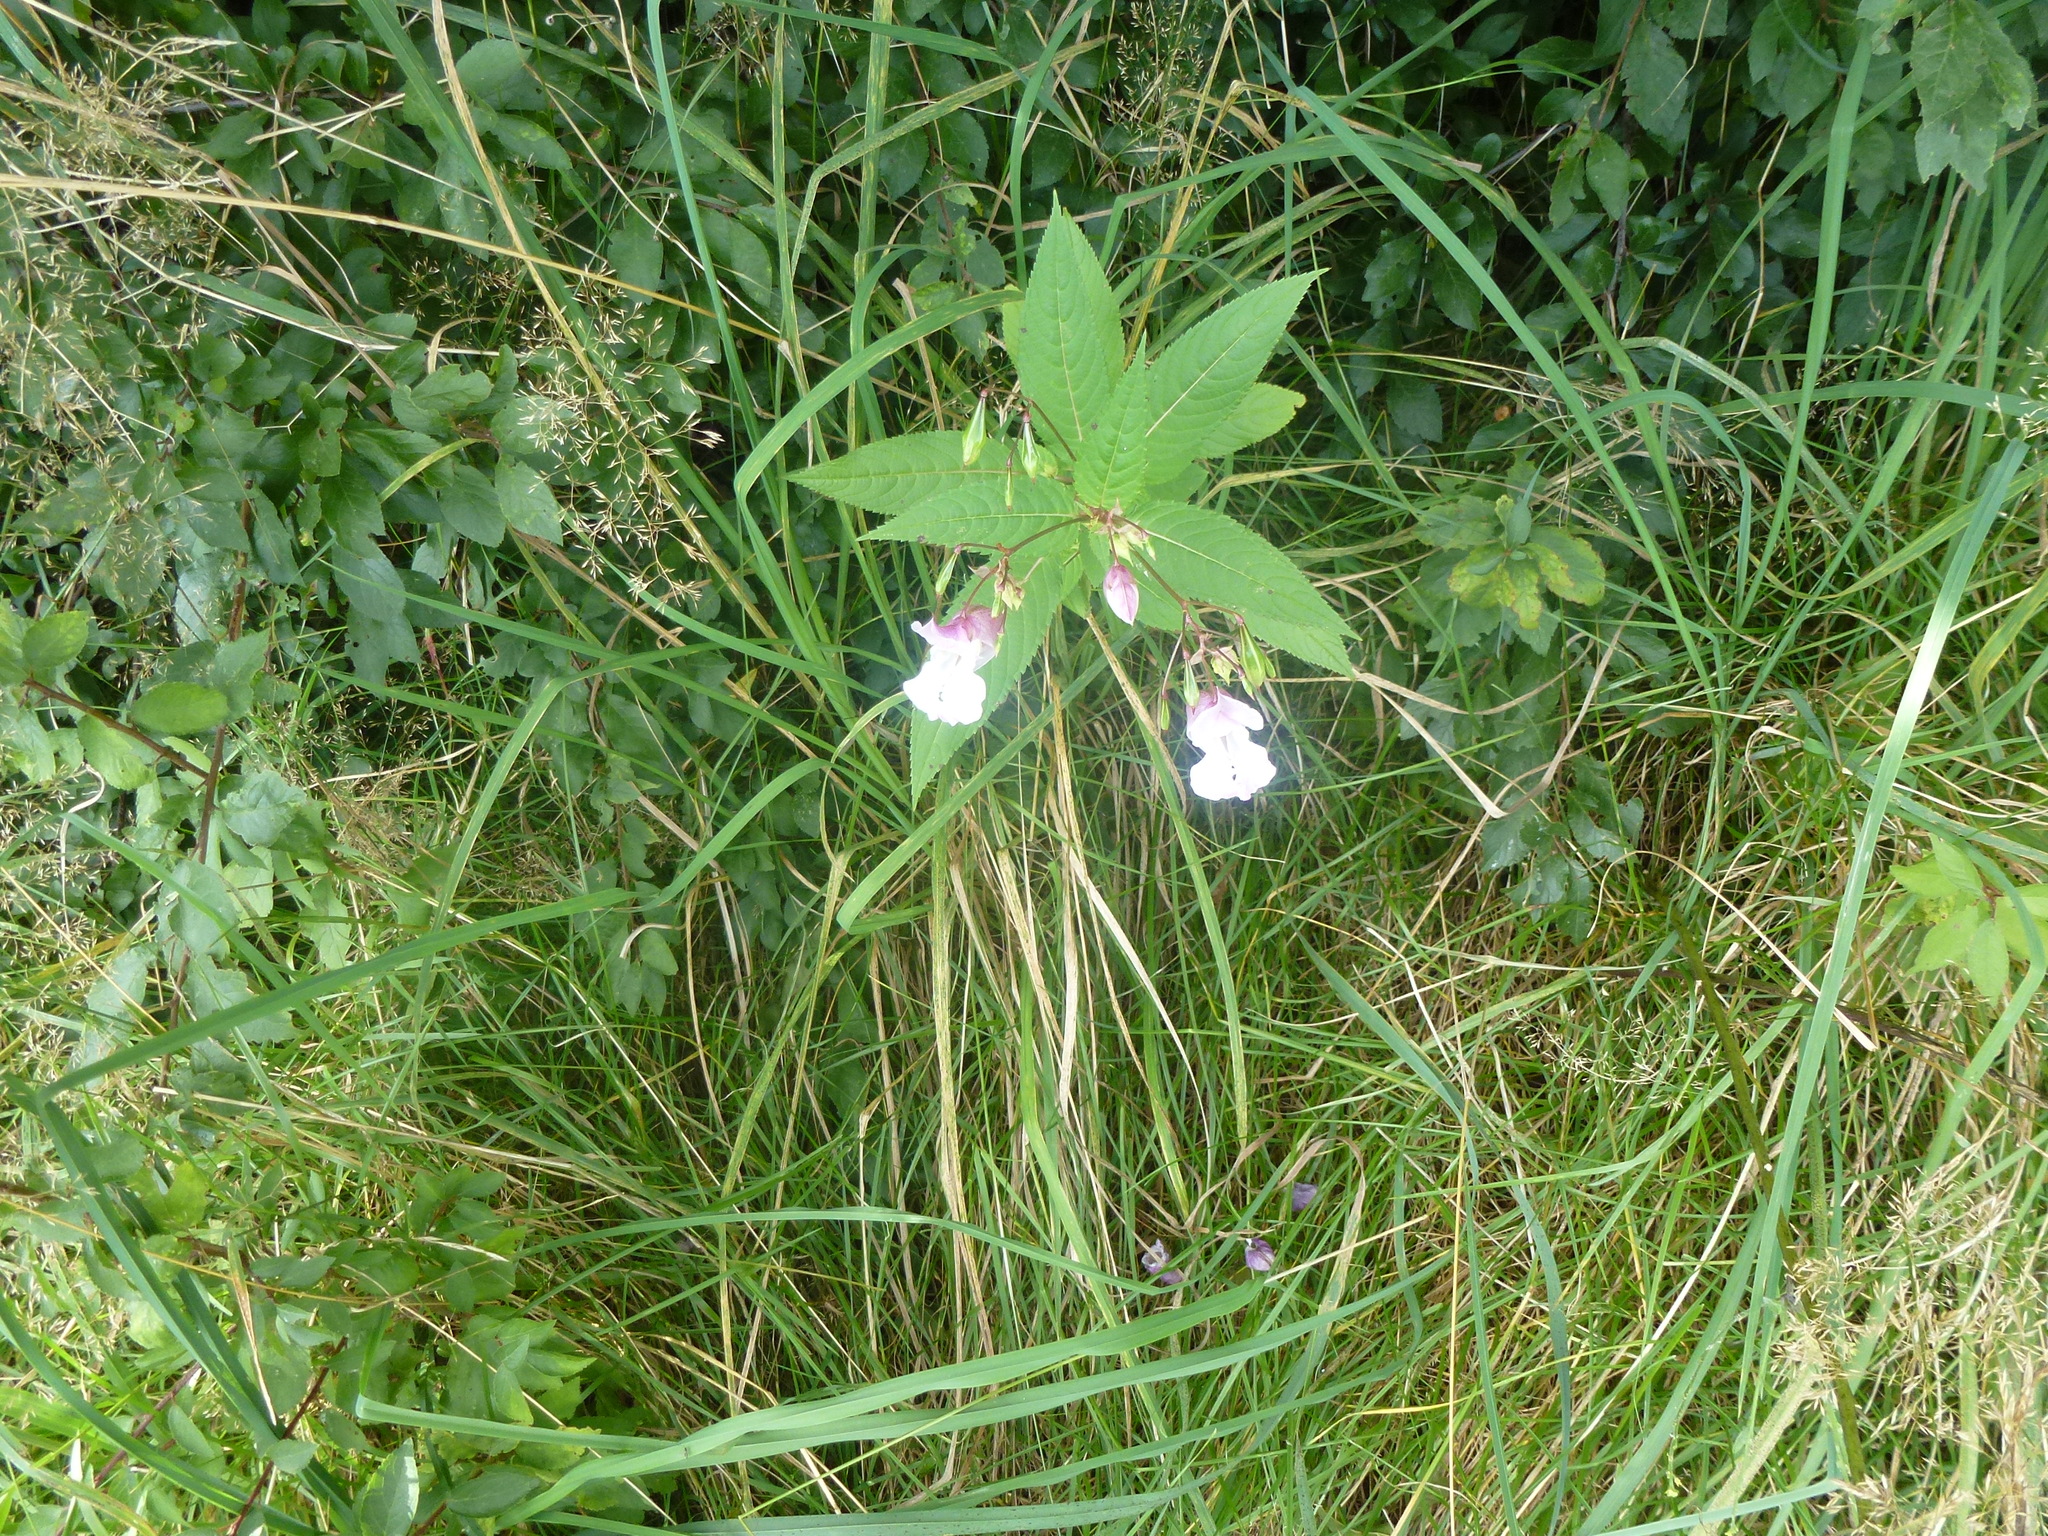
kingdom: Plantae
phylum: Tracheophyta
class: Magnoliopsida
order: Ericales
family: Balsaminaceae
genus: Impatiens
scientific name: Impatiens glandulifera
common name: Himalayan balsam
